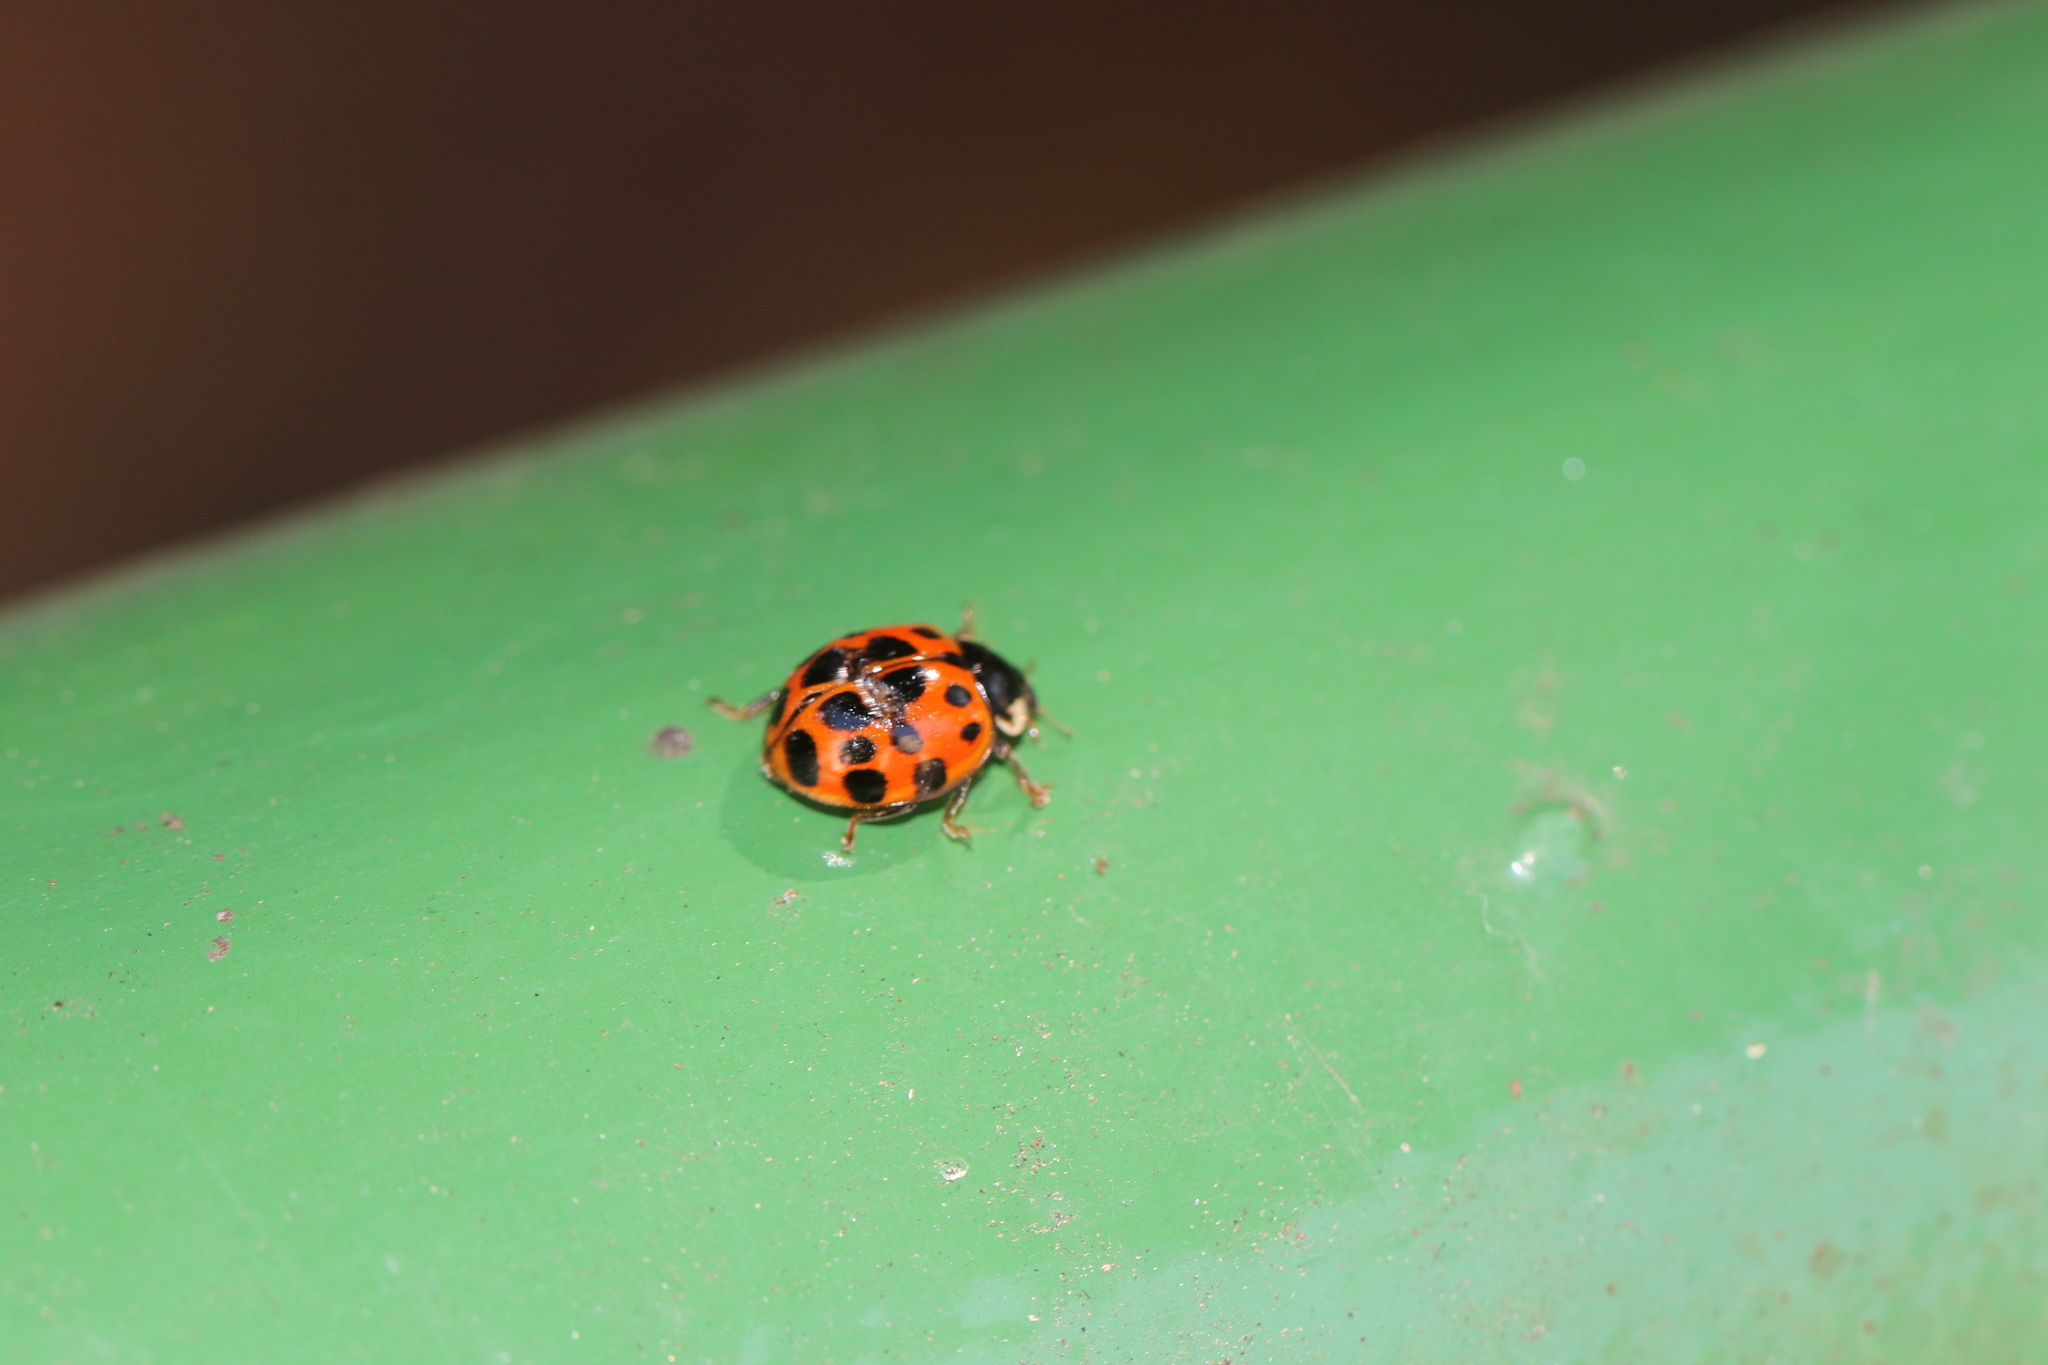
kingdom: Animalia
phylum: Arthropoda
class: Insecta
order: Coleoptera
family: Coccinellidae
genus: Harmonia
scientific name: Harmonia axyridis
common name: Harlequin ladybird
